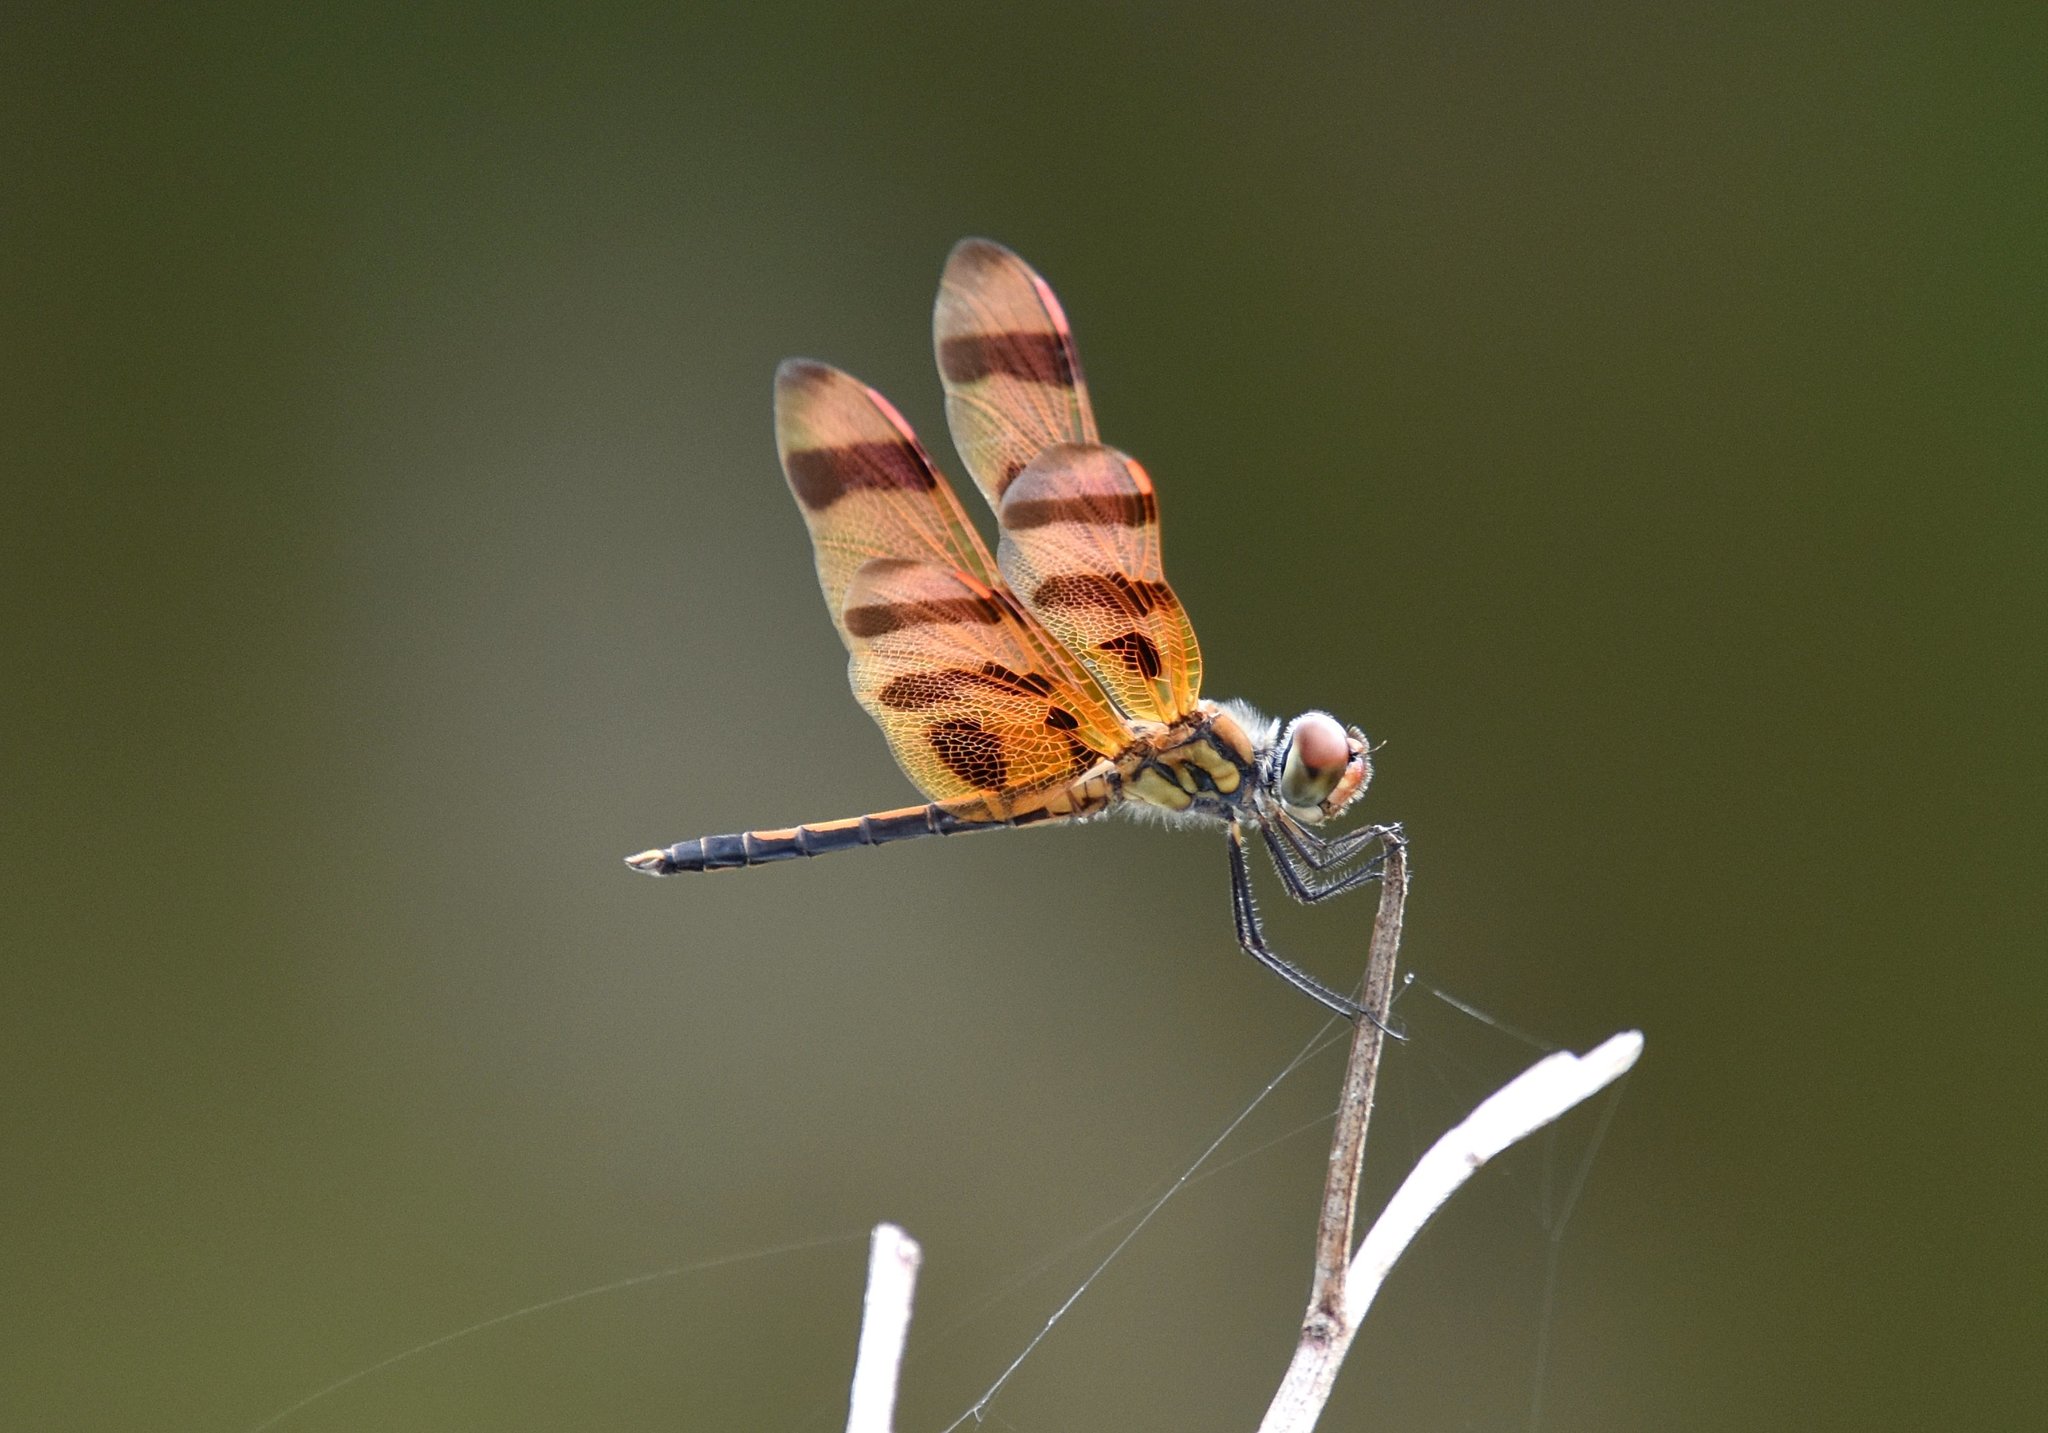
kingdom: Animalia
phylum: Arthropoda
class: Insecta
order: Odonata
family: Libellulidae
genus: Celithemis
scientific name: Celithemis eponina
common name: Halloween pennant
